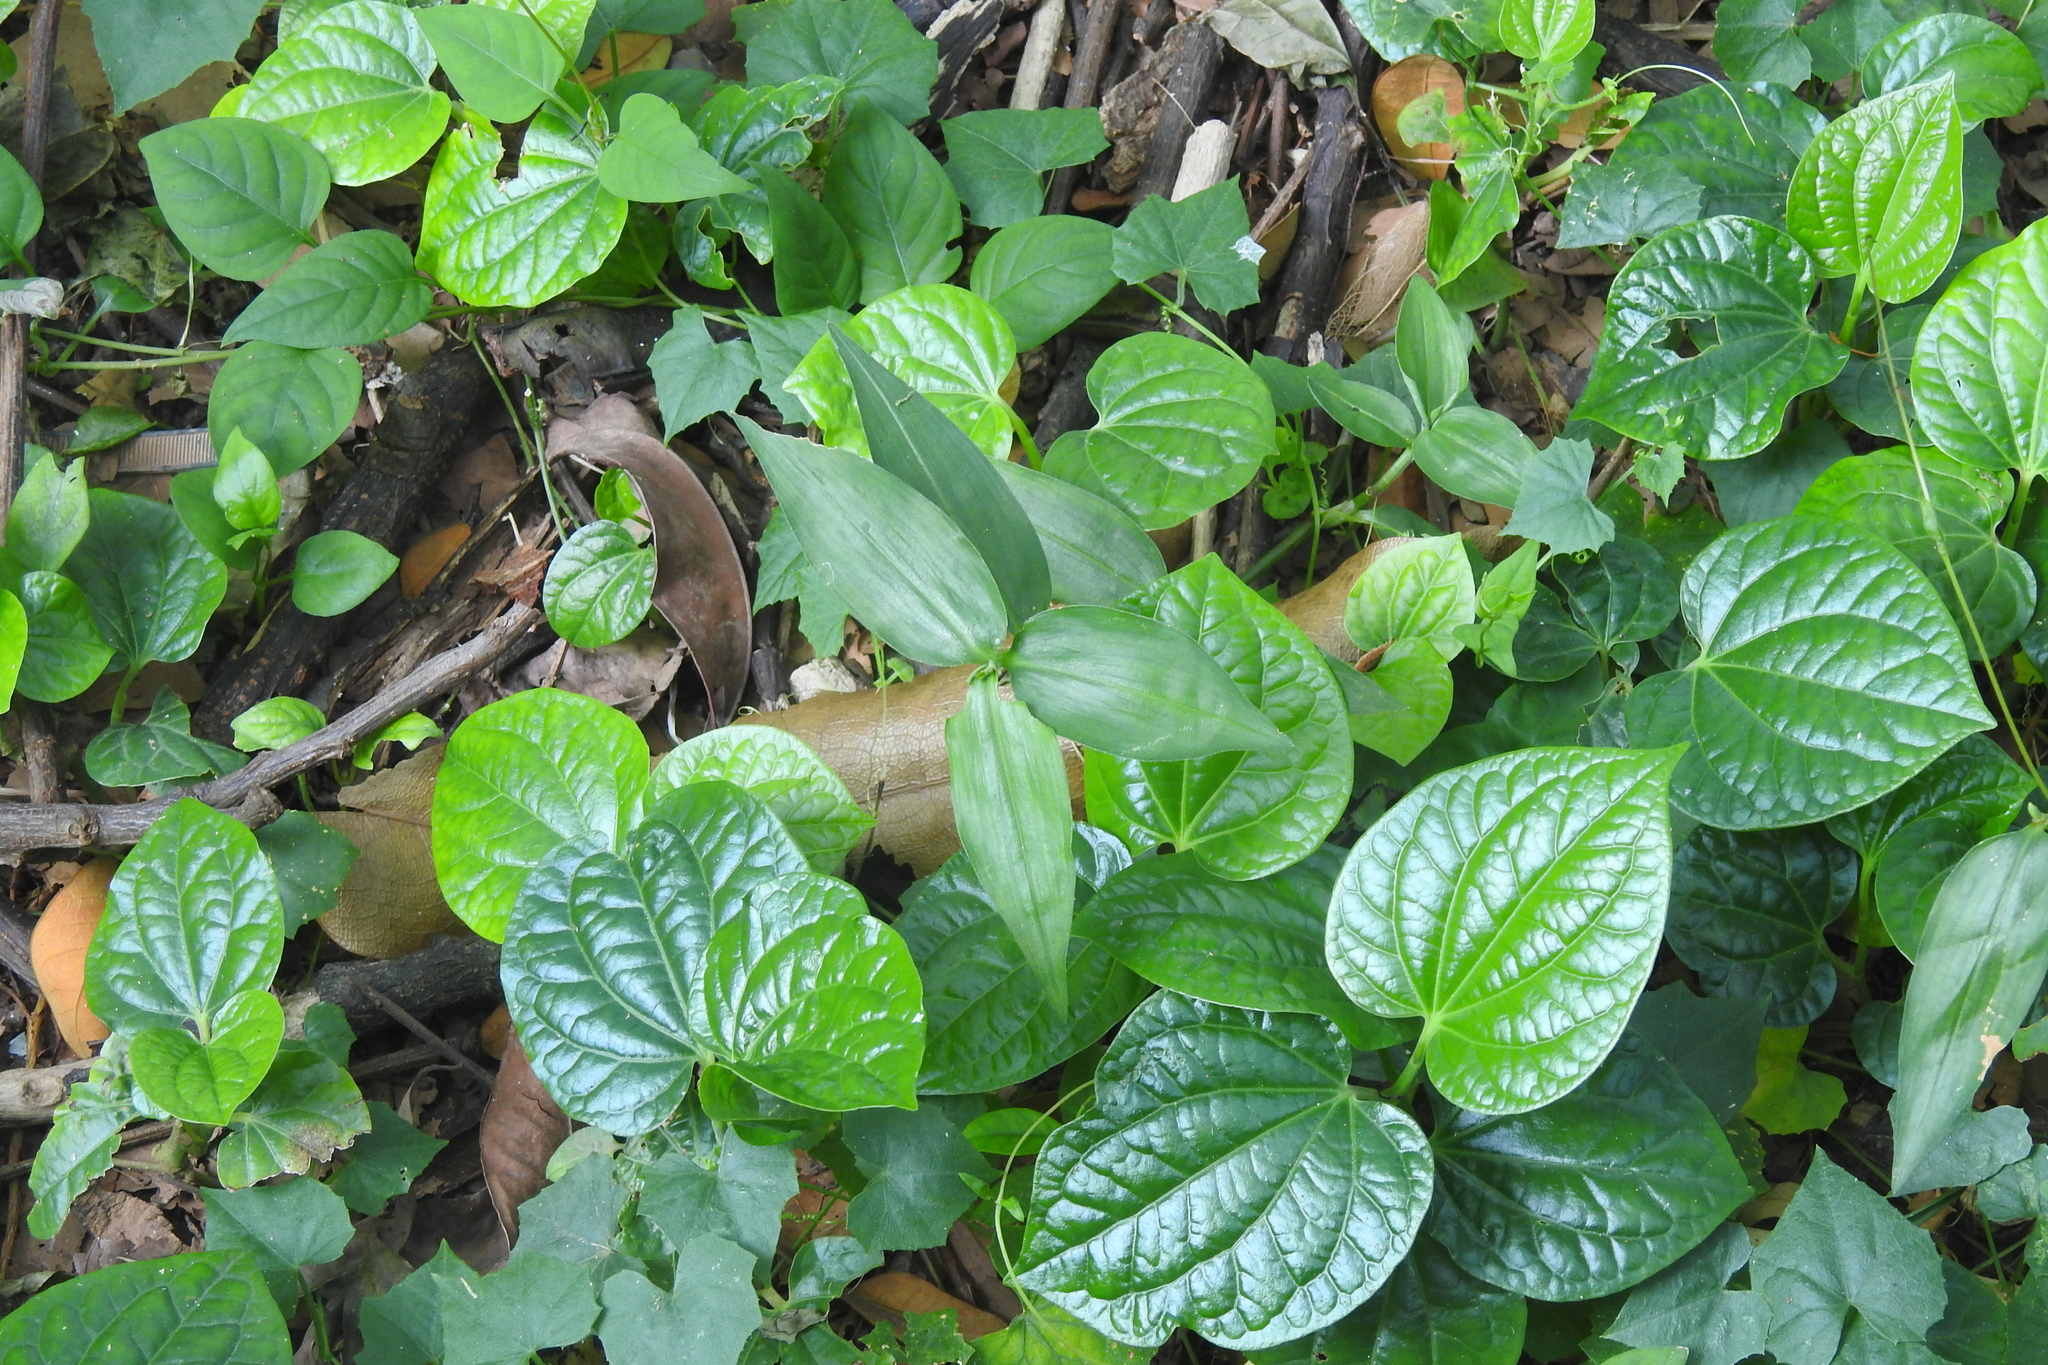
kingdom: Plantae
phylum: Tracheophyta
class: Liliopsida
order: Commelinales
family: Commelinaceae
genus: Commelina
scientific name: Commelina diffusa
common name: Climbing dayflower
